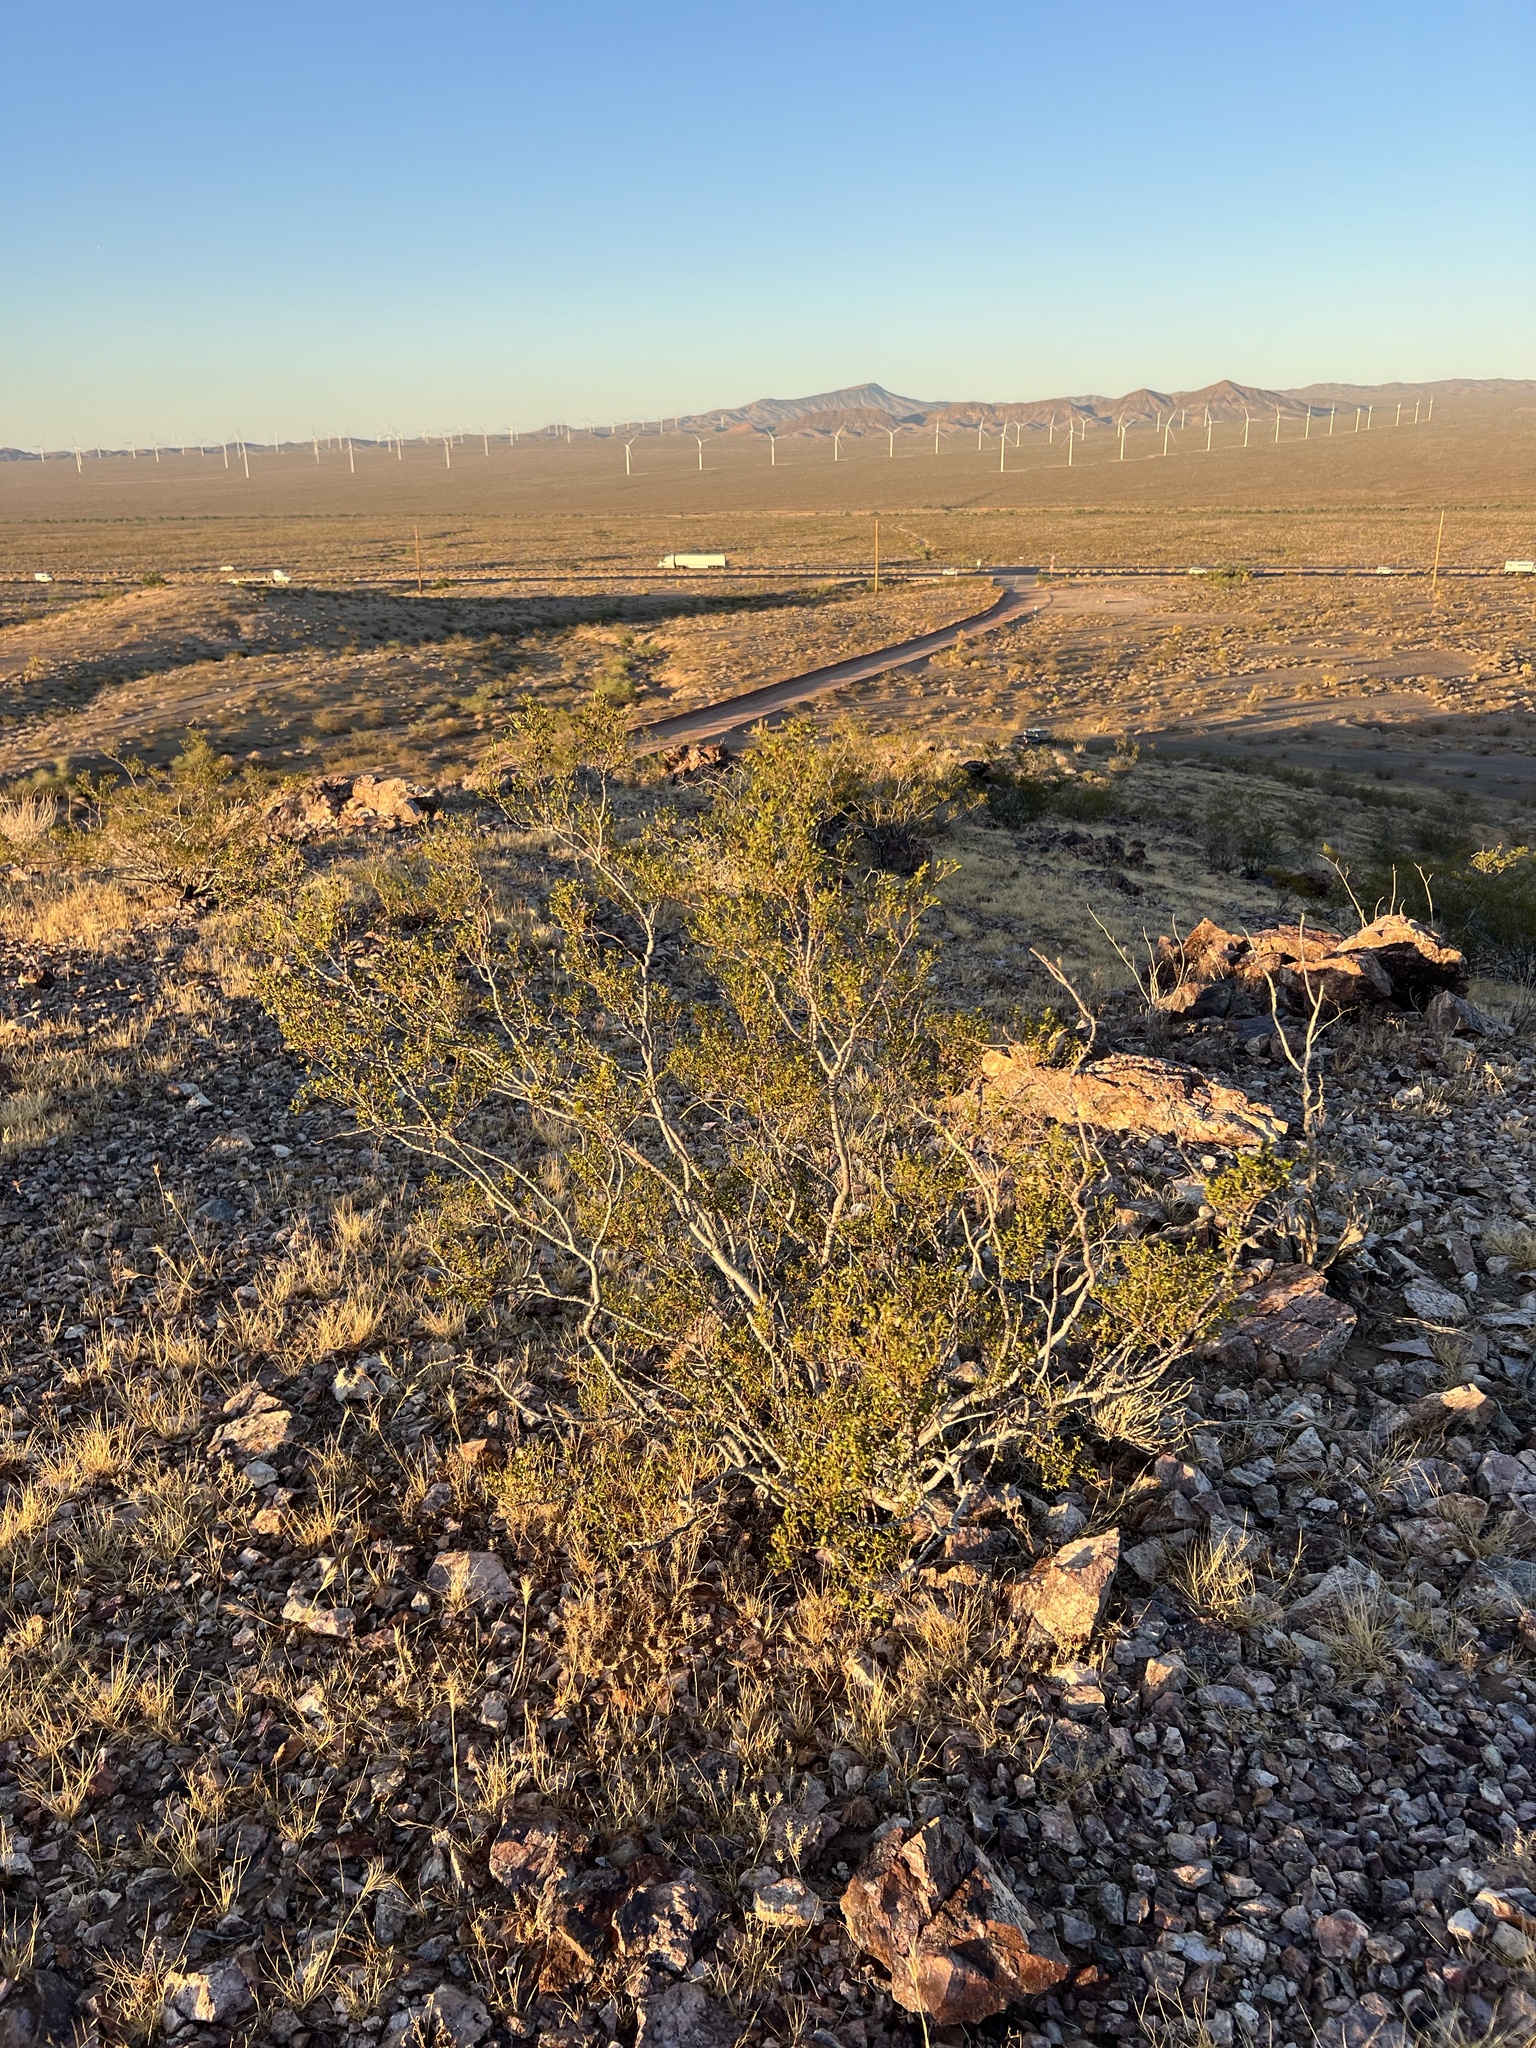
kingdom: Plantae
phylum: Tracheophyta
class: Magnoliopsida
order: Zygophyllales
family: Zygophyllaceae
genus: Larrea
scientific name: Larrea tridentata
